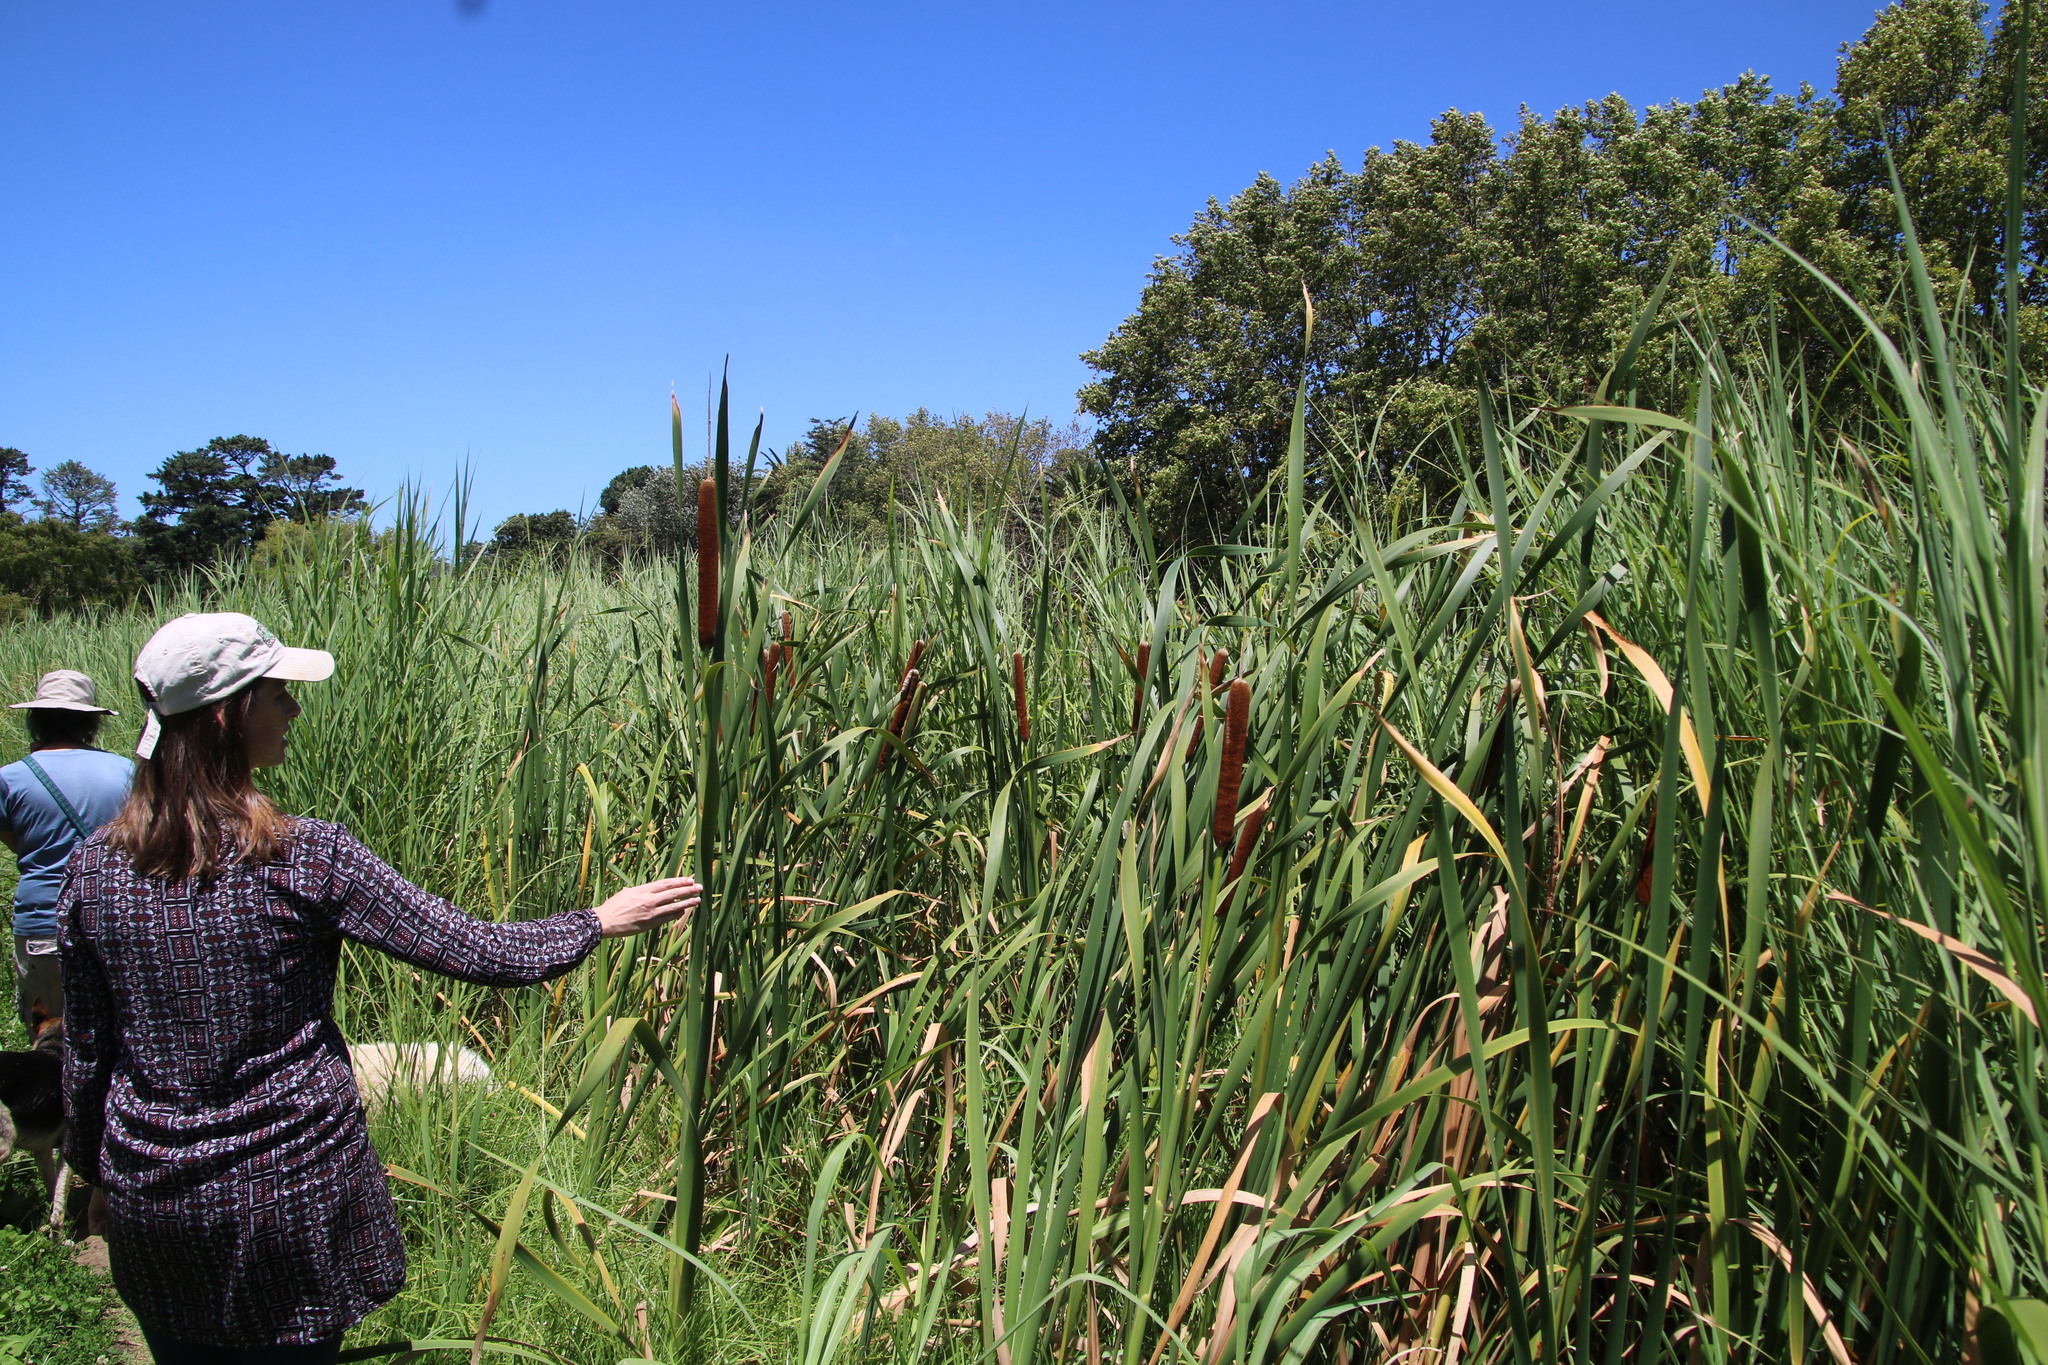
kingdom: Plantae
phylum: Tracheophyta
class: Liliopsida
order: Poales
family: Typhaceae
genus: Typha
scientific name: Typha capensis
